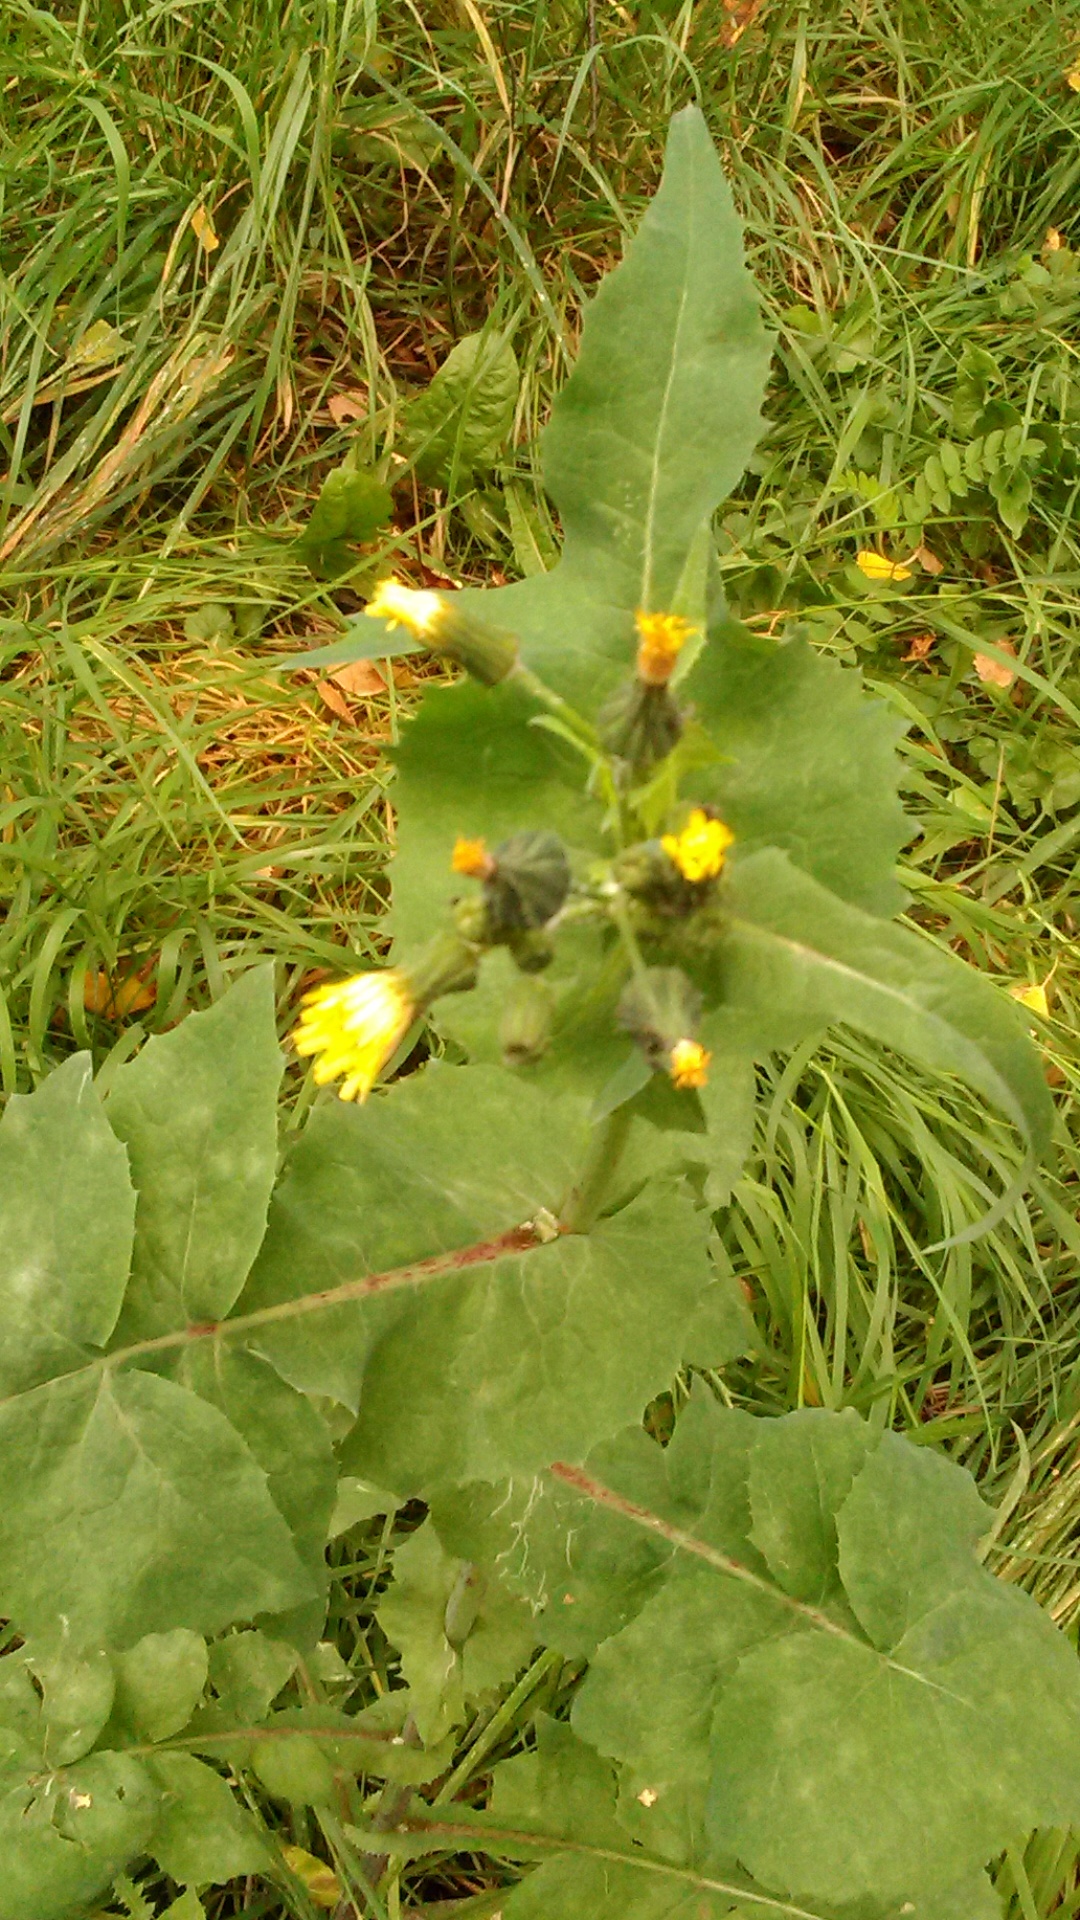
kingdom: Plantae
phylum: Tracheophyta
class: Magnoliopsida
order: Asterales
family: Asteraceae
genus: Sonchus
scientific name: Sonchus oleraceus
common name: Common sowthistle
